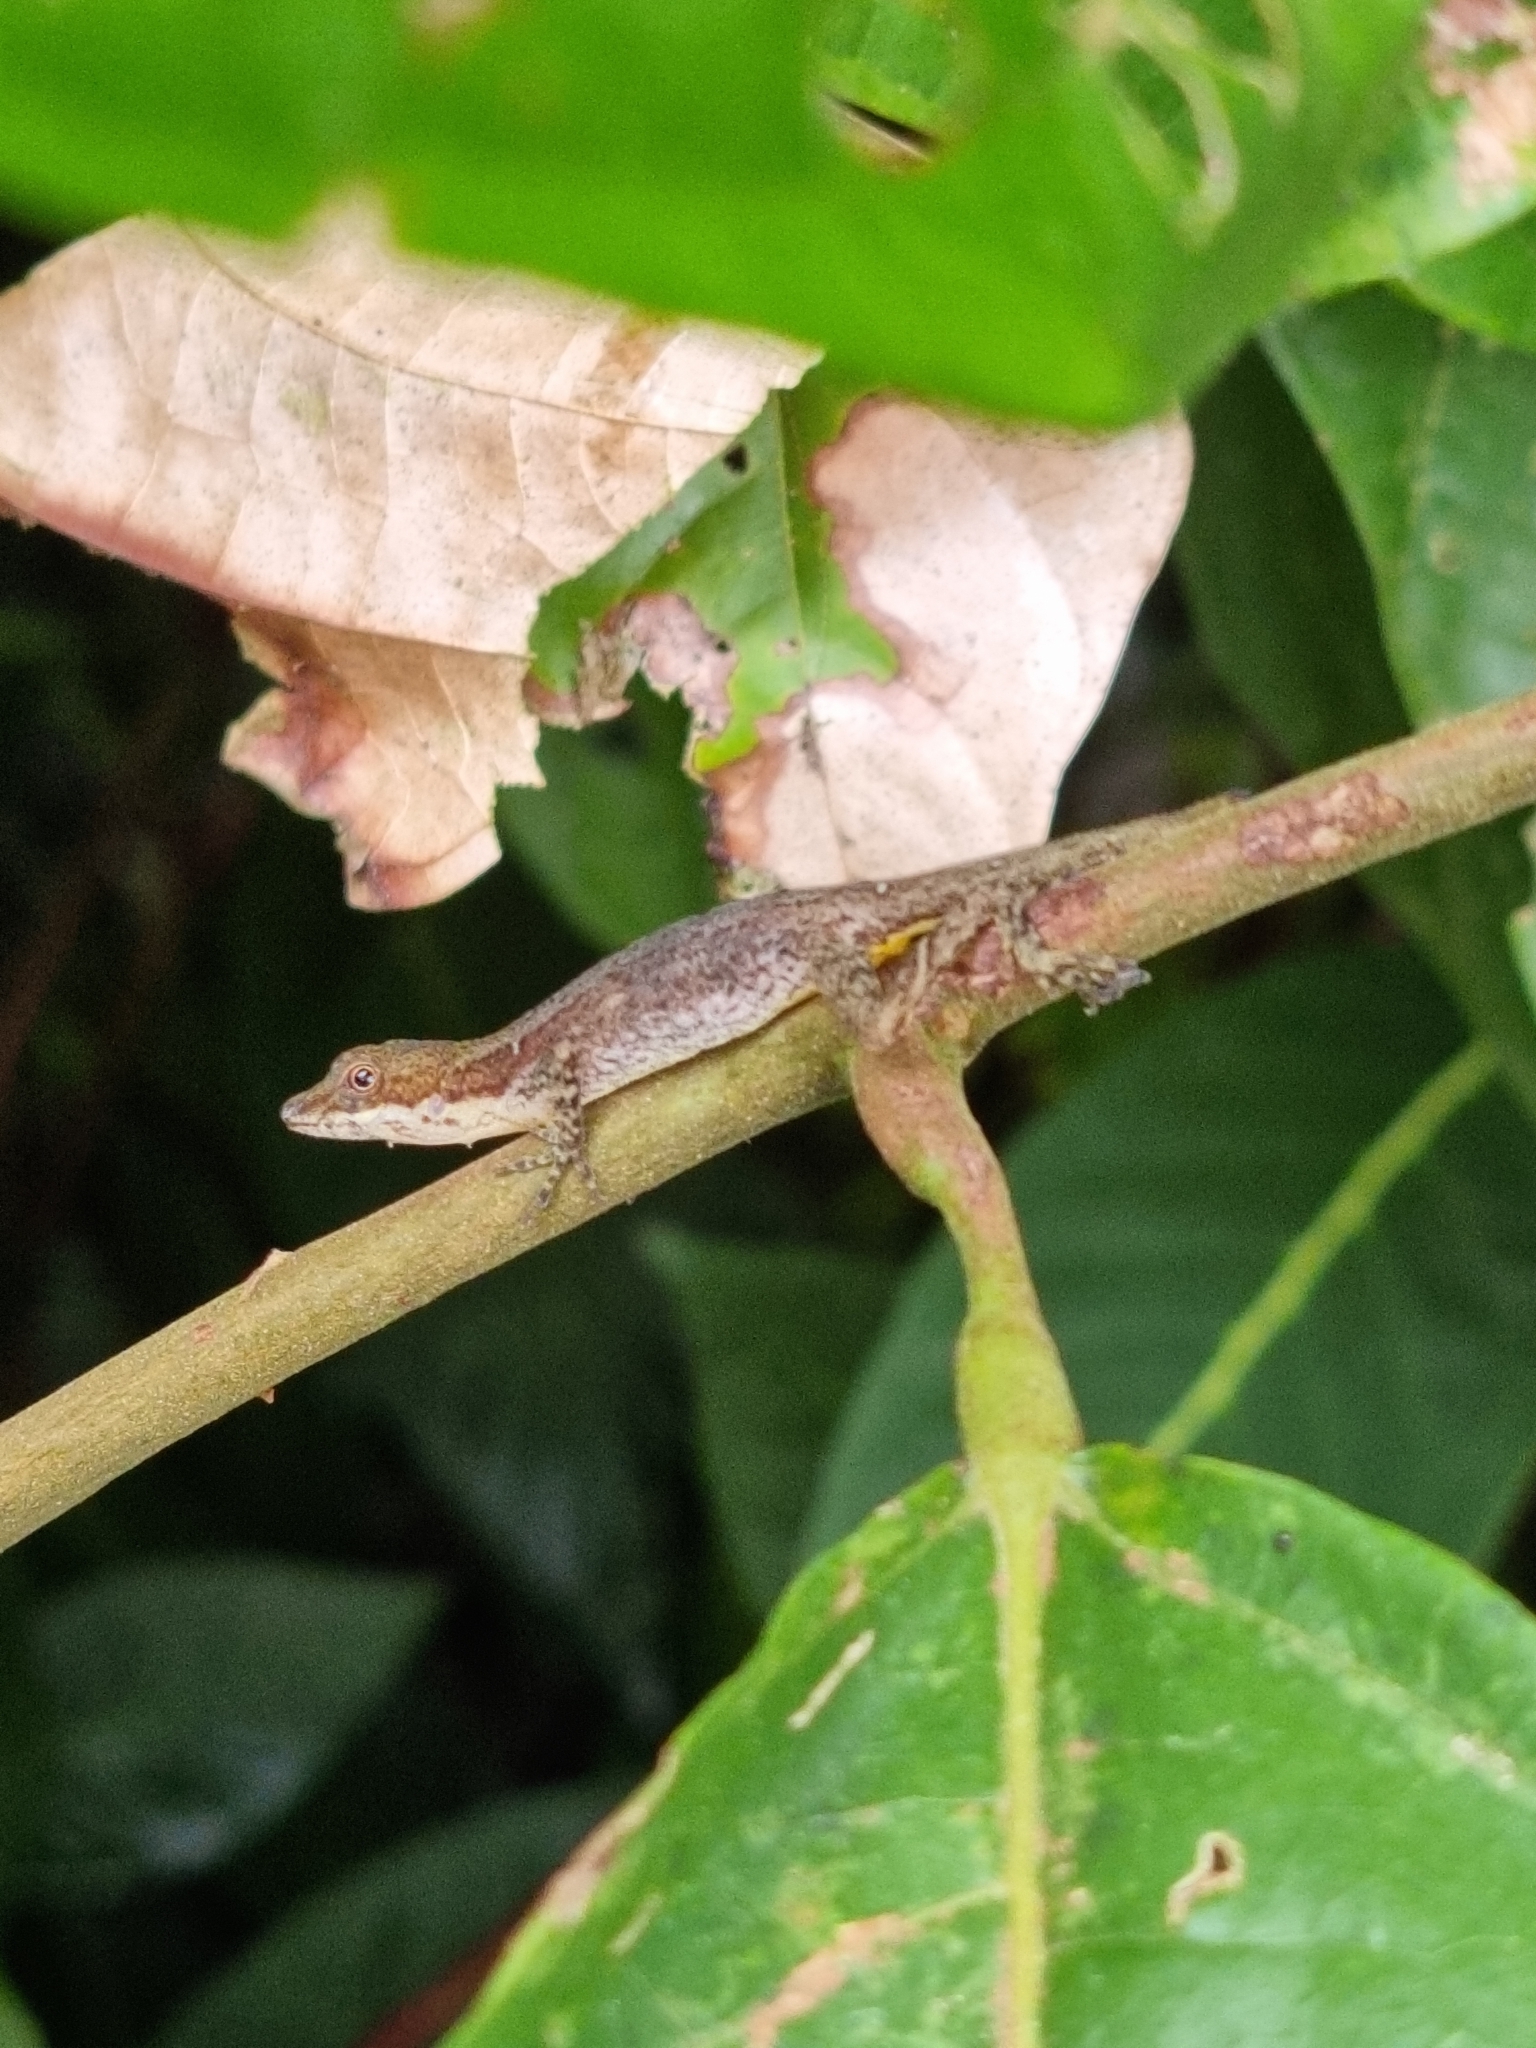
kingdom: Animalia
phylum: Chordata
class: Squamata
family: Dactyloidae
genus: Anolis
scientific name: Anolis limifrons
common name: Border anole
